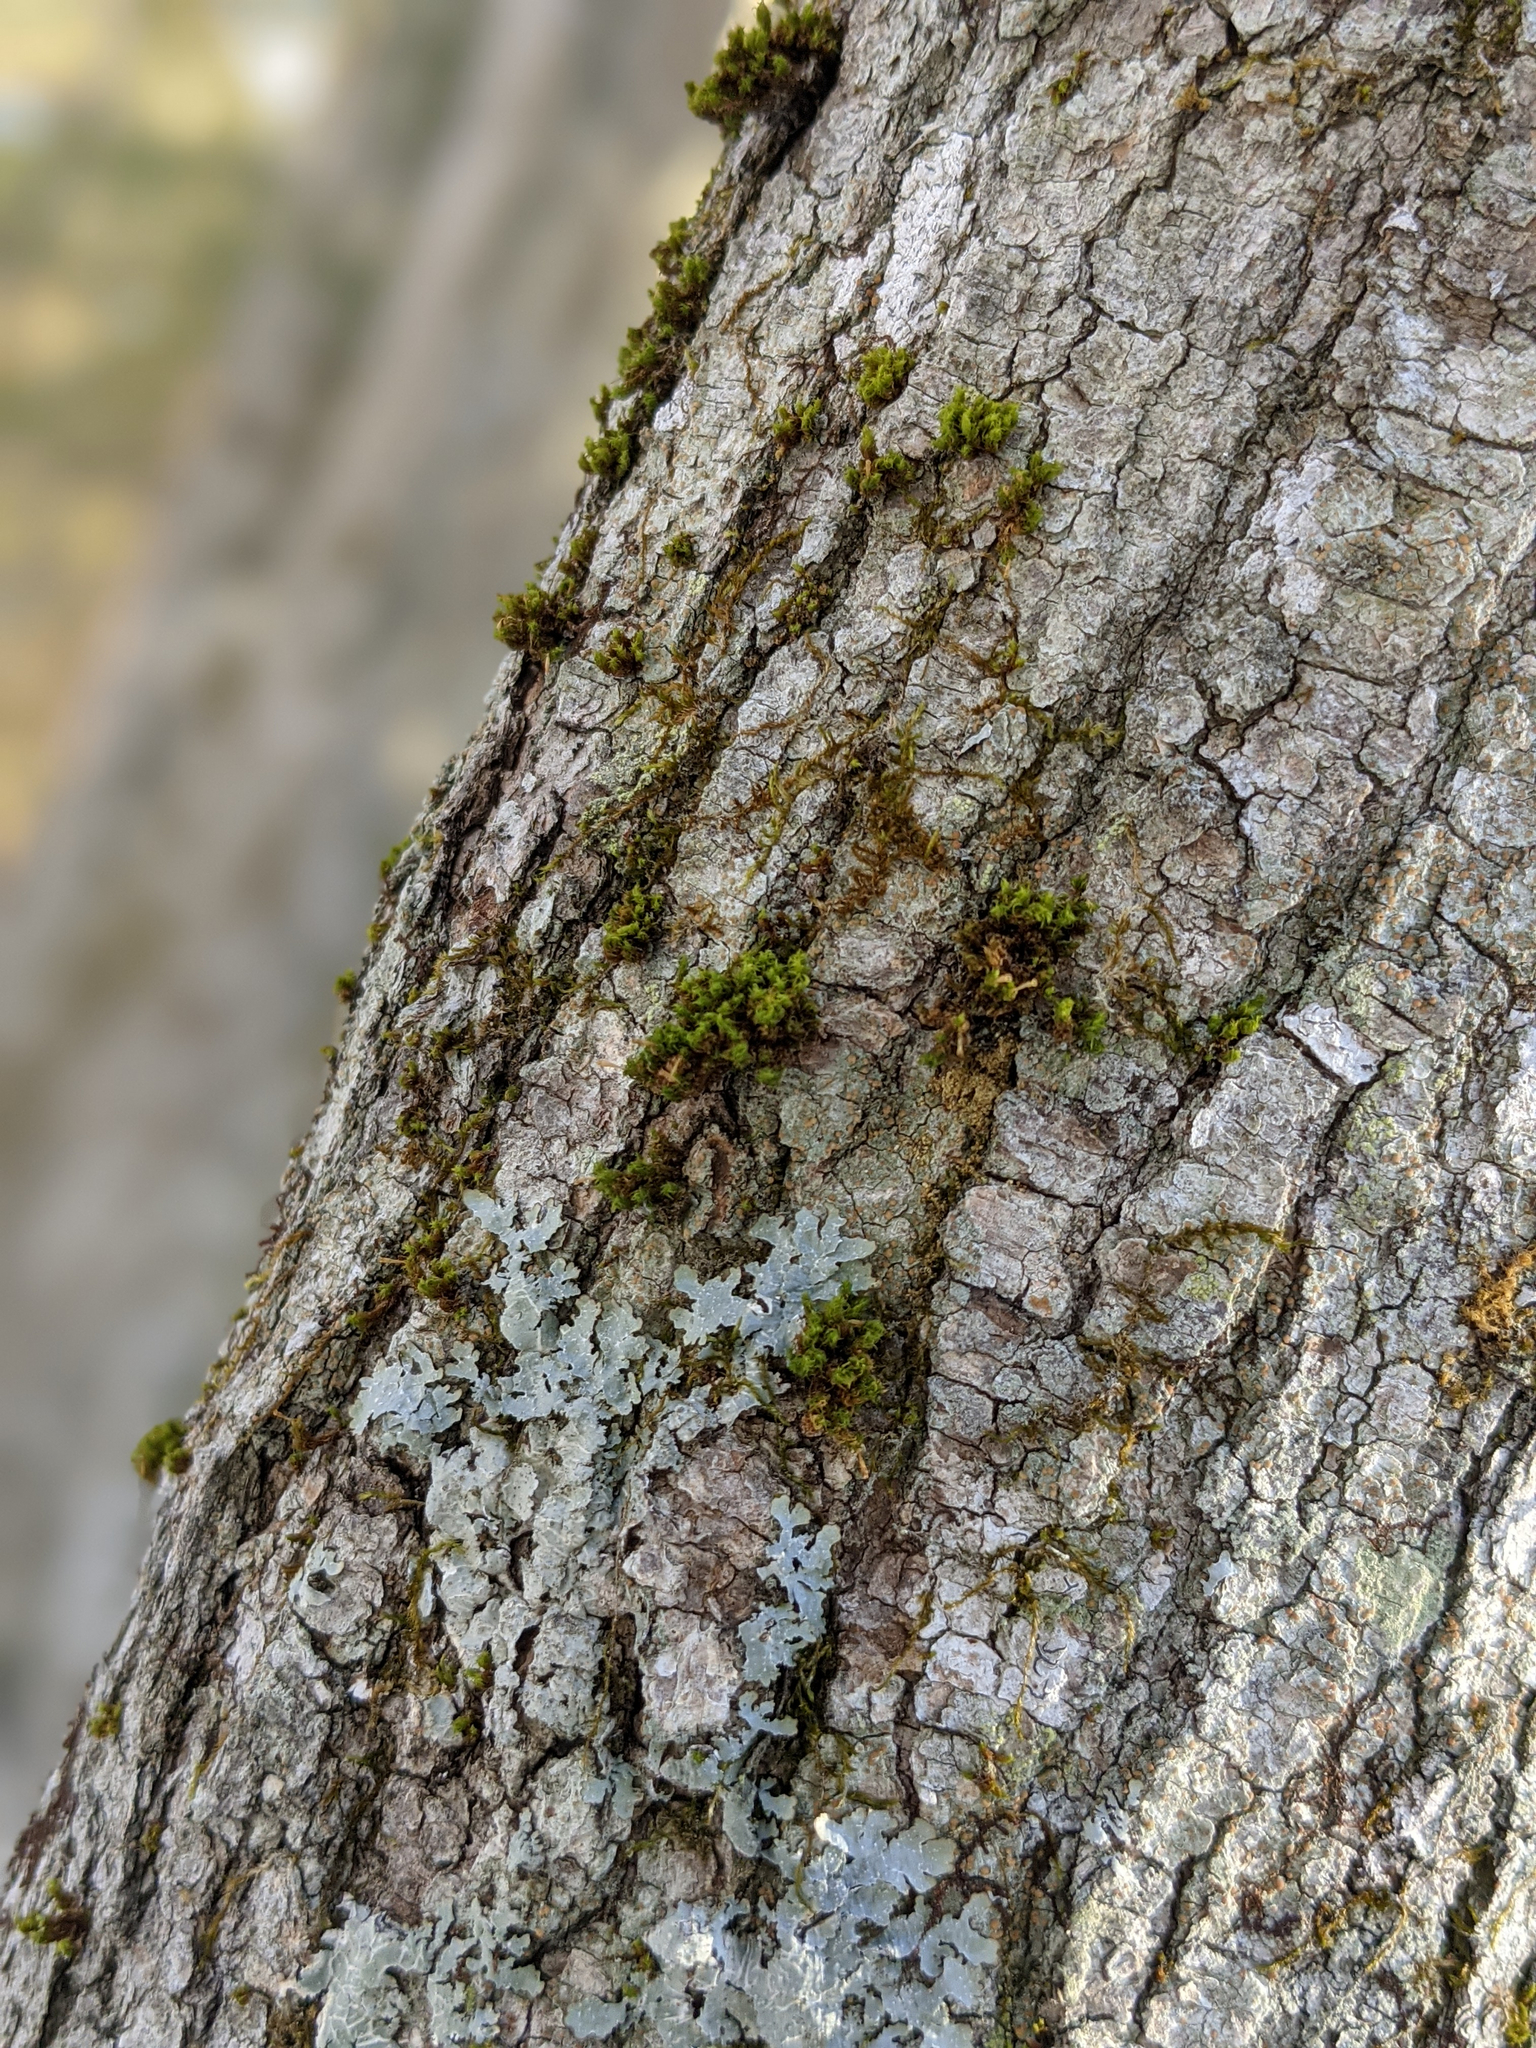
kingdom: Plantae
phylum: Bryophyta
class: Bryopsida
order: Orthotrichales
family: Orthotrichaceae
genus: Ulota
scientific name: Ulota crispa
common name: Crisped pincushion moss
